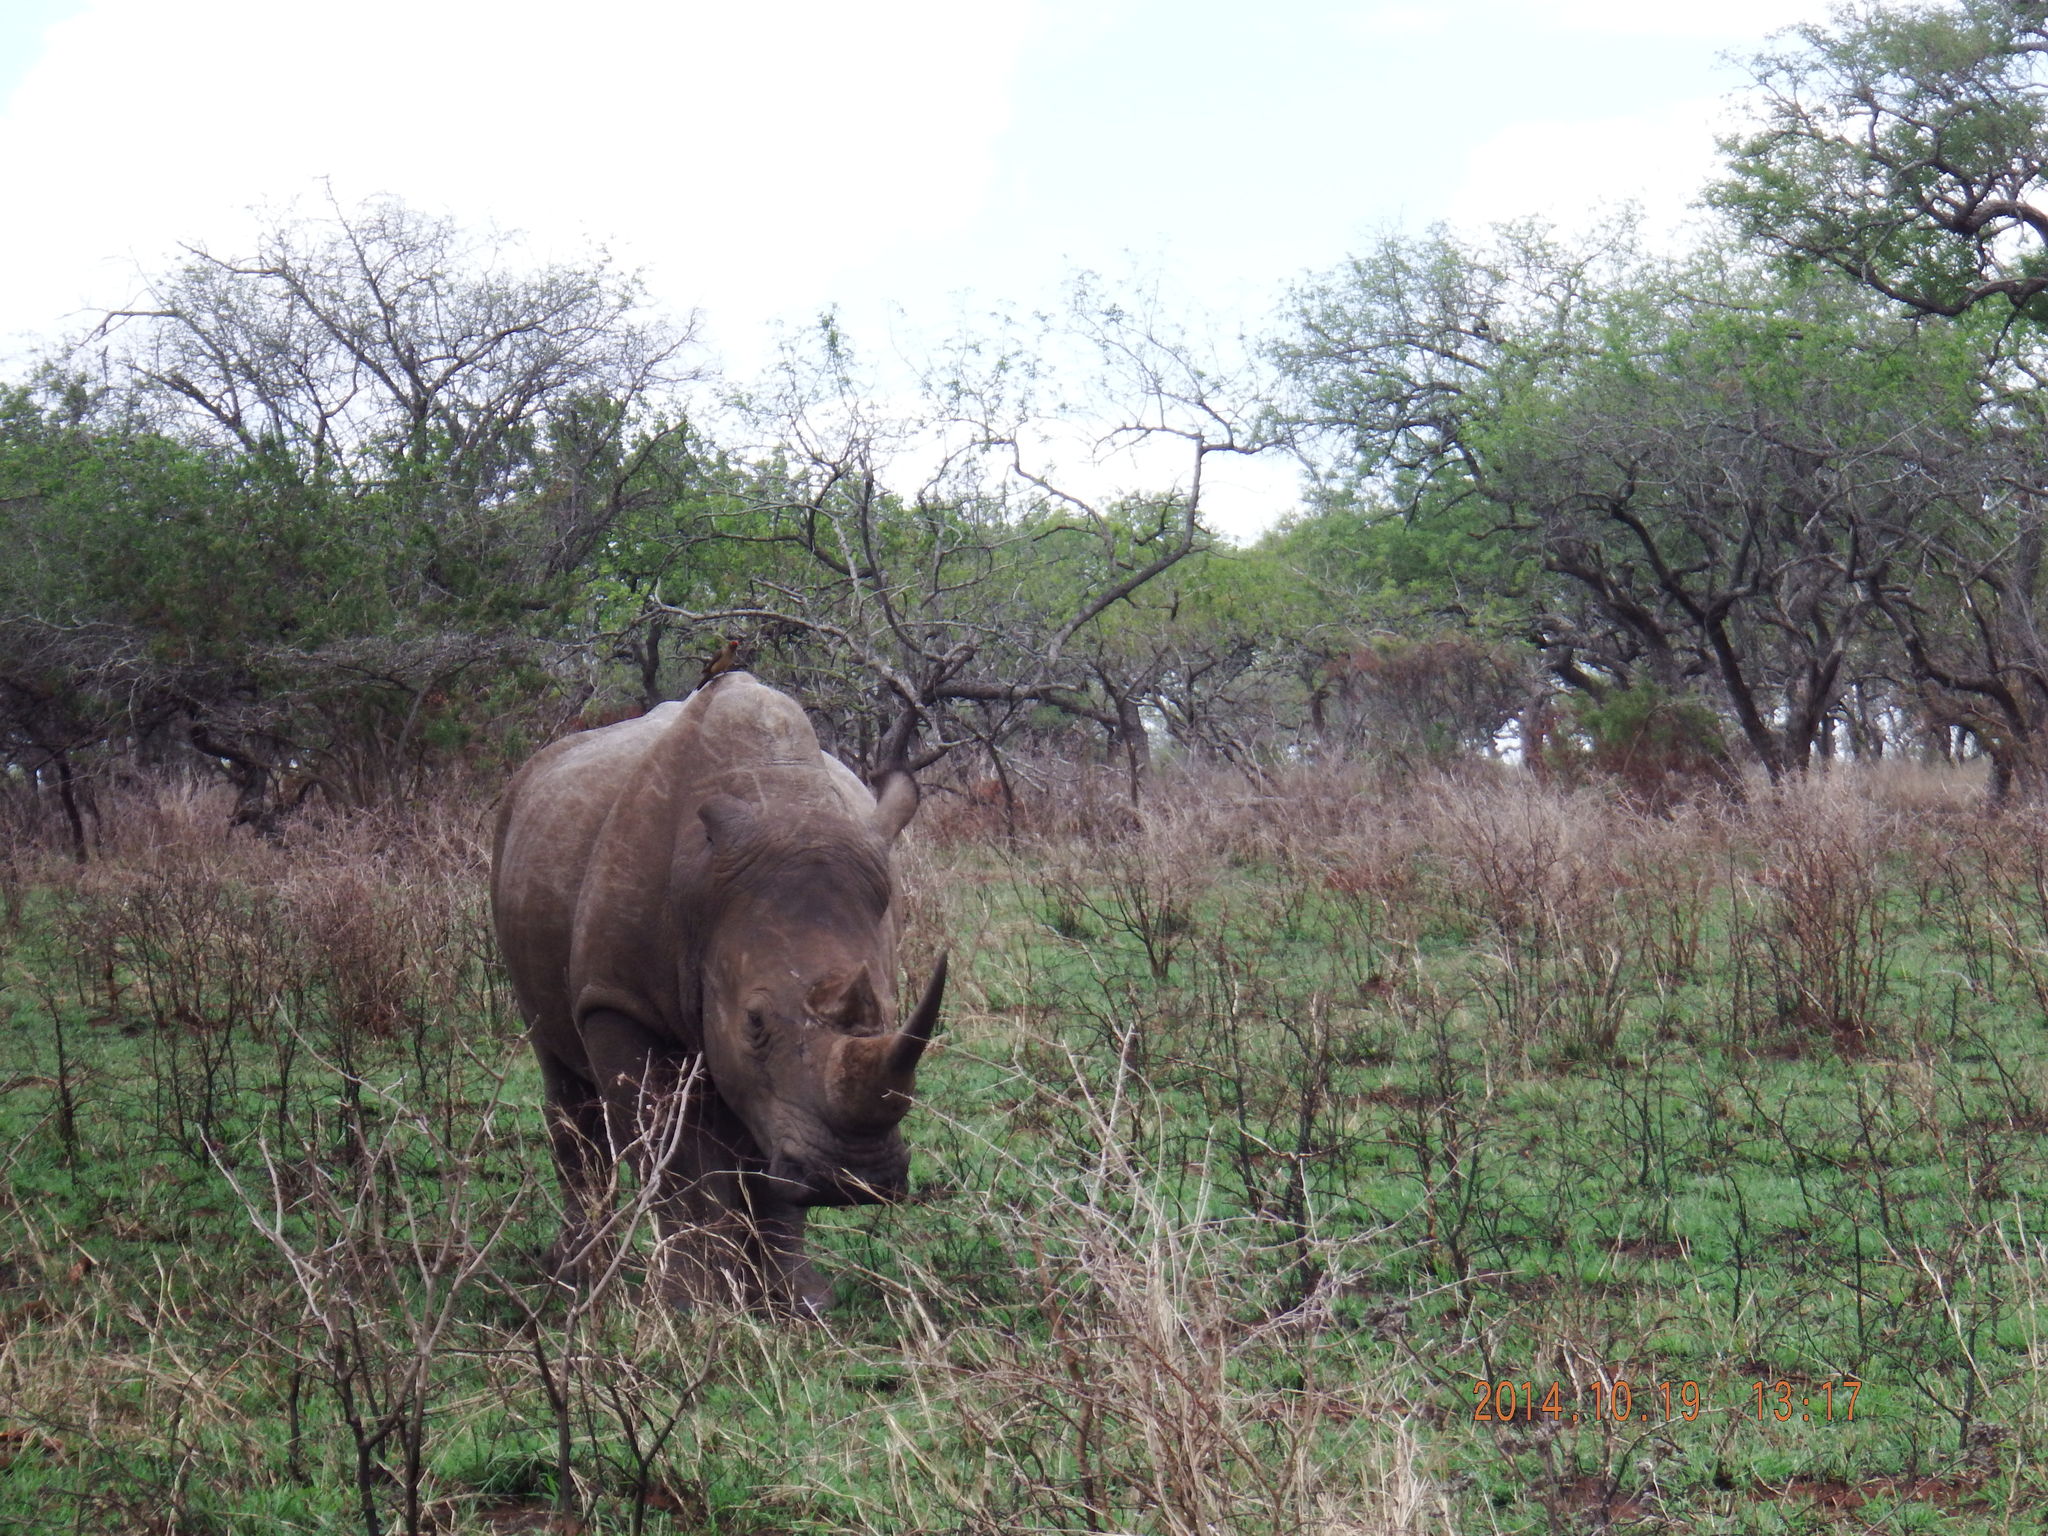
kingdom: Animalia
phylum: Chordata
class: Mammalia
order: Perissodactyla
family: Rhinocerotidae
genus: Ceratotherium
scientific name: Ceratotherium simum
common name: White rhinoceros
